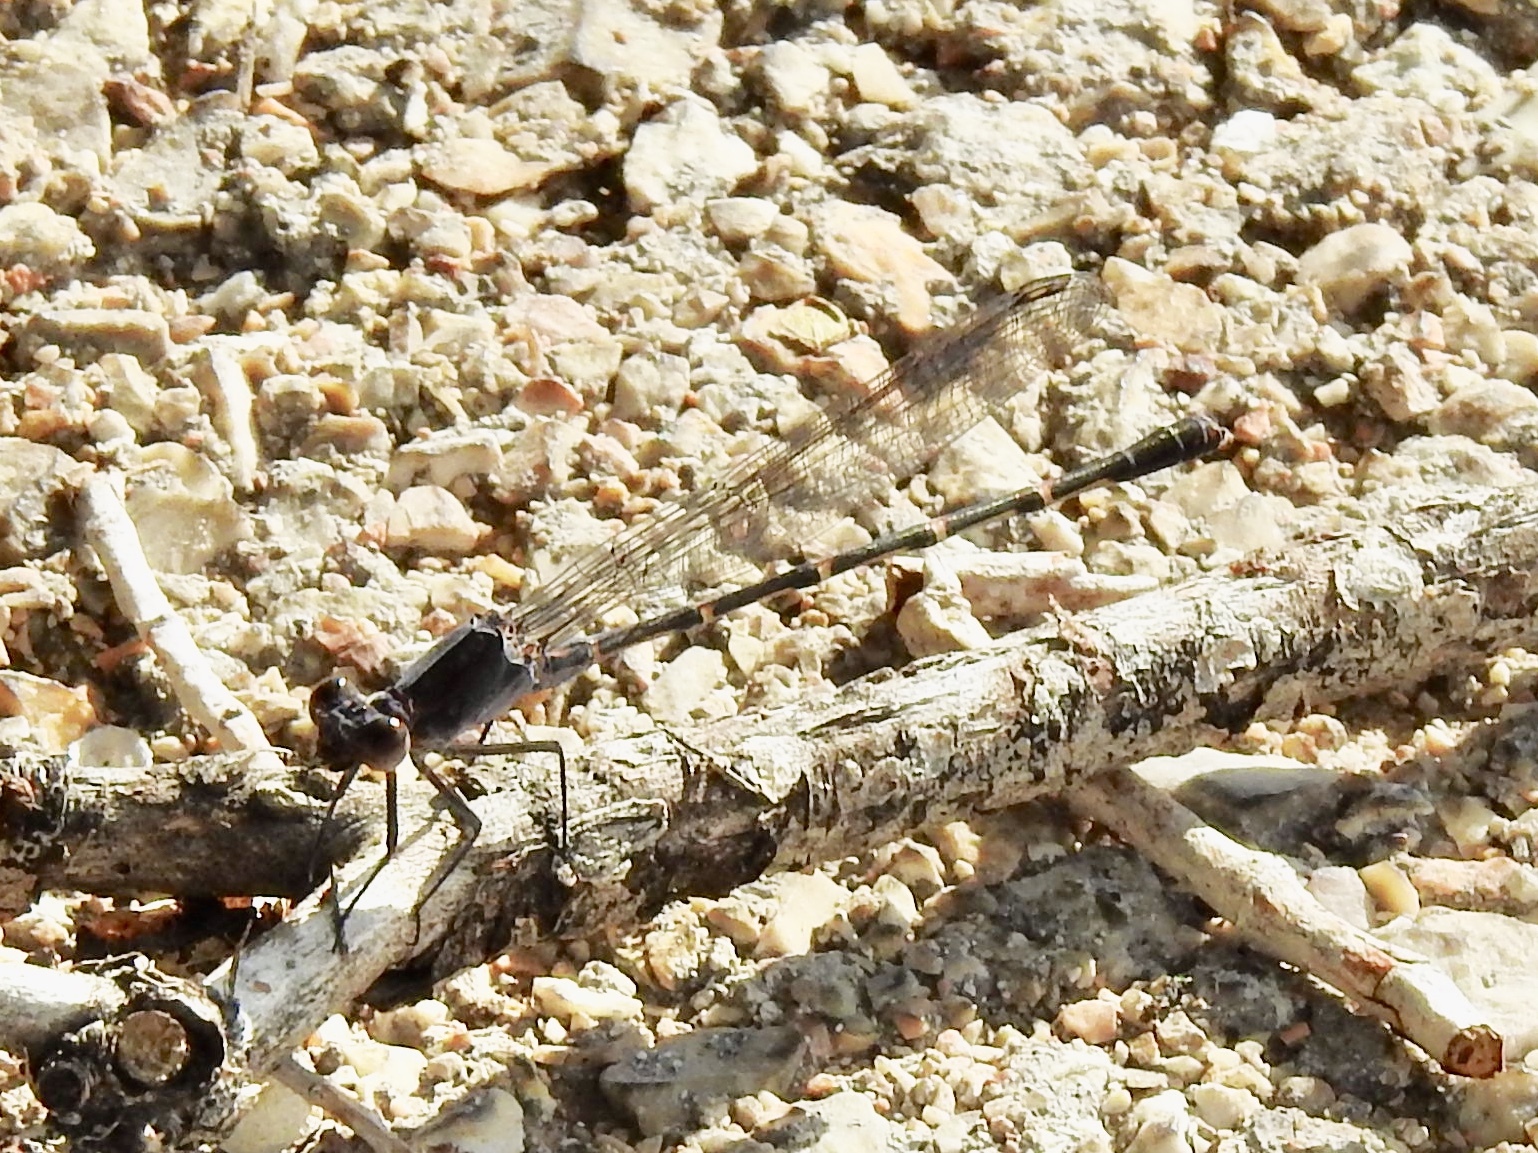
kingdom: Animalia
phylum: Arthropoda
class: Insecta
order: Odonata
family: Coenagrionidae
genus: Argia
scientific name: Argia lugens
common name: Sooty dancer
